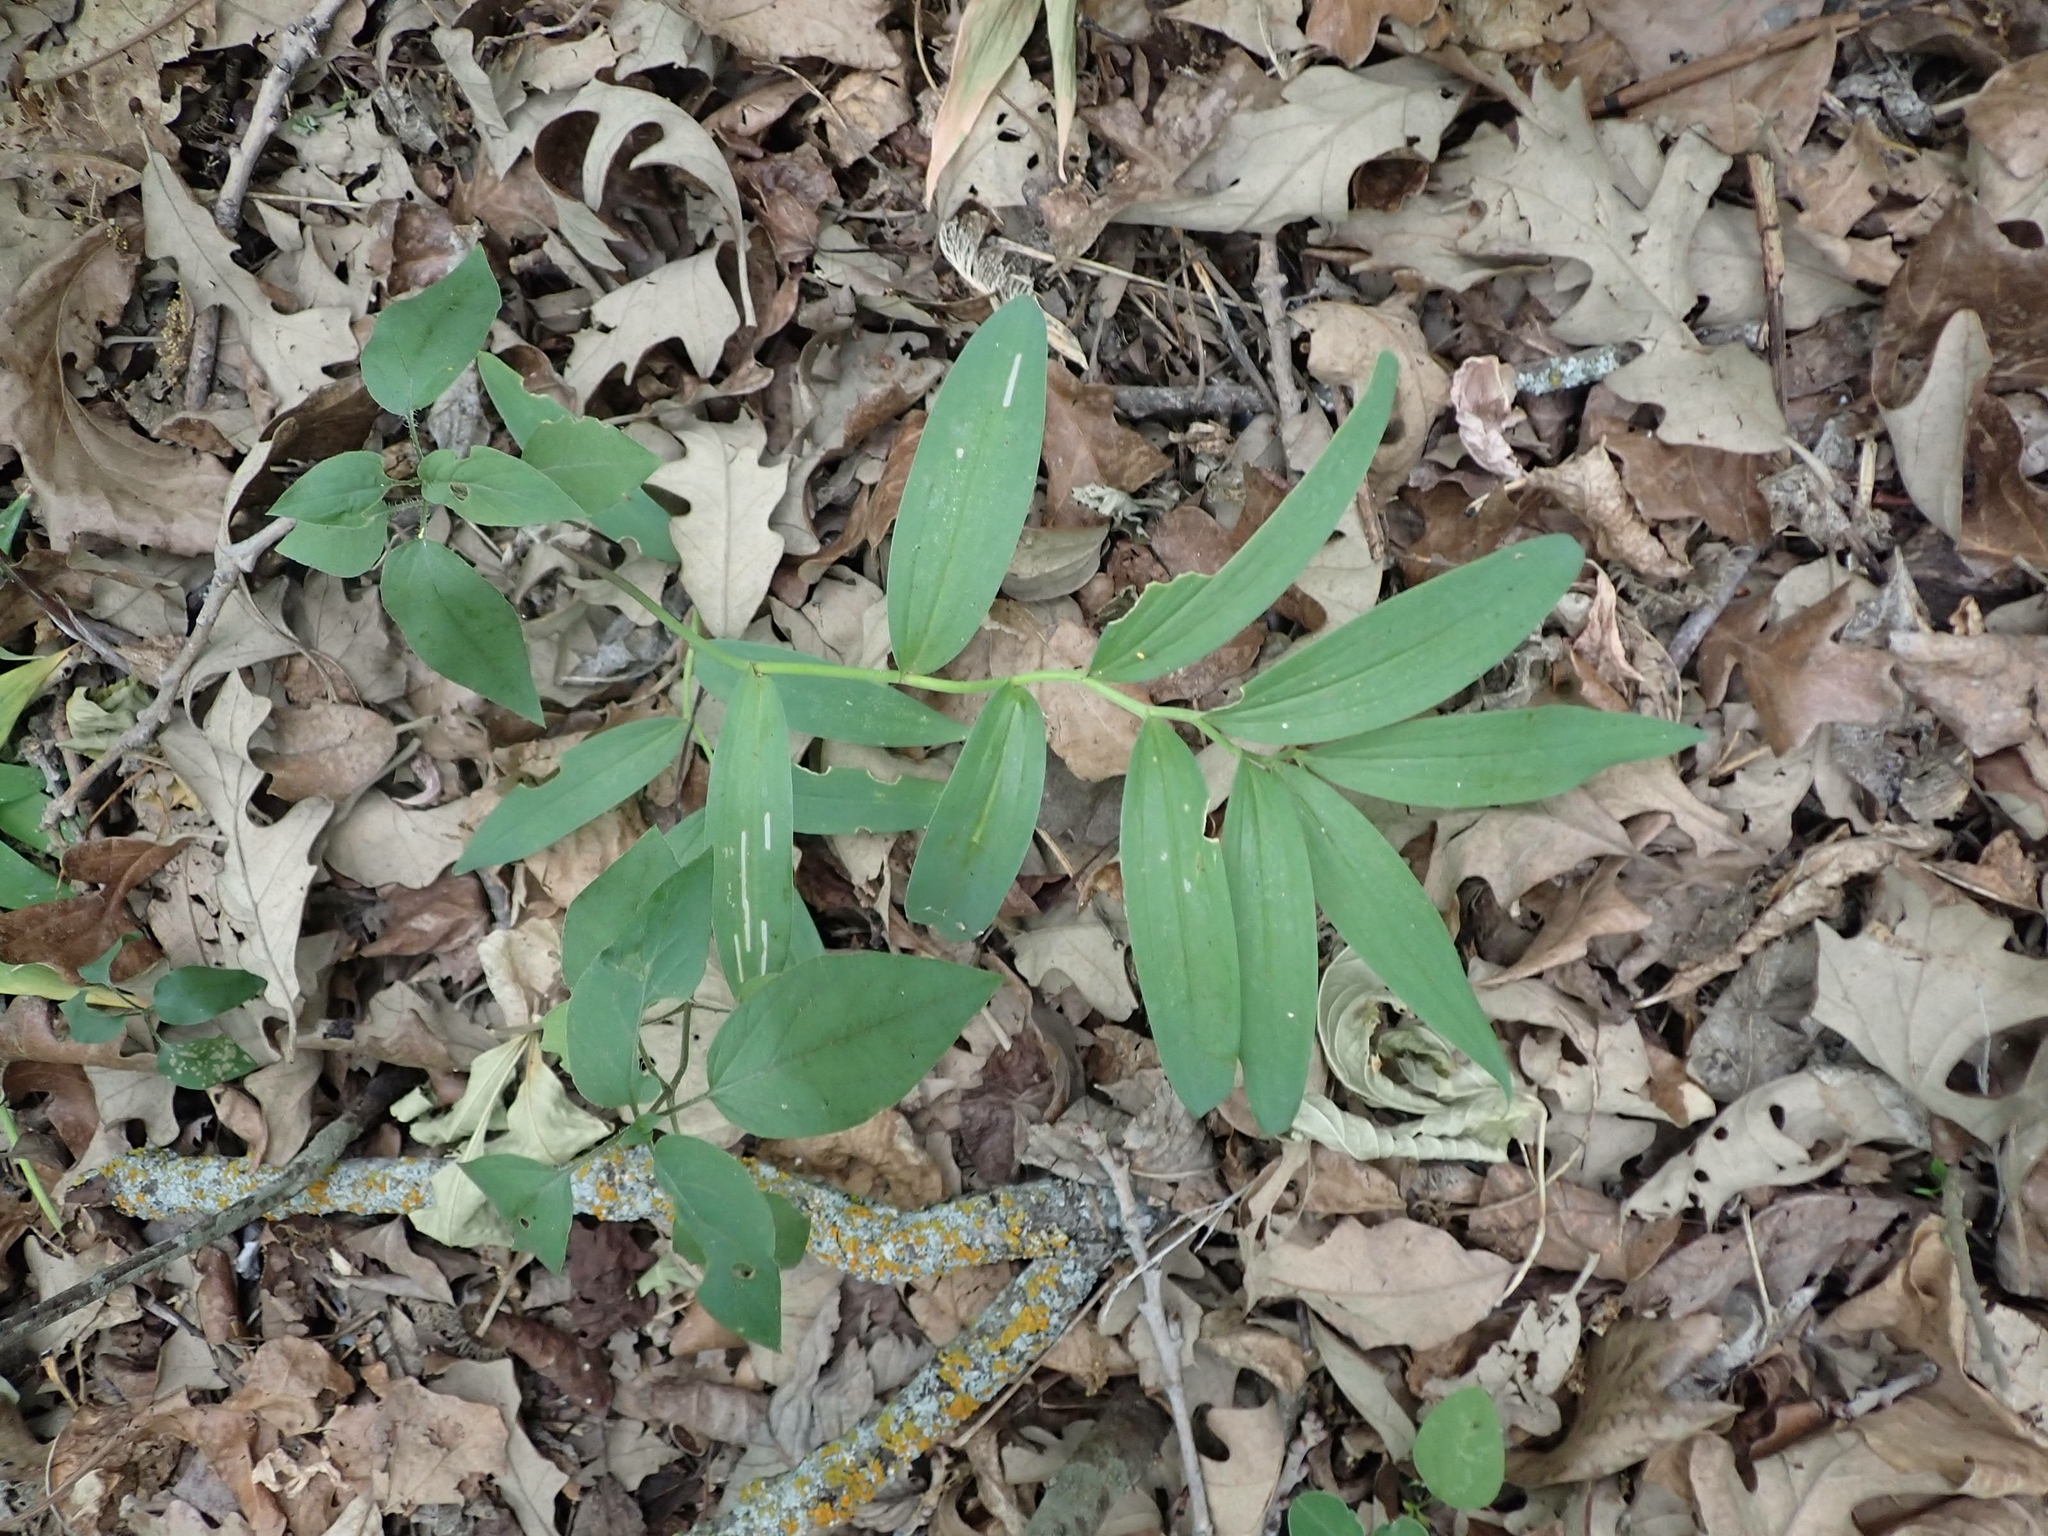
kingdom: Plantae
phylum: Tracheophyta
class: Liliopsida
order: Asparagales
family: Asparagaceae
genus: Maianthemum
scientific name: Maianthemum stellatum
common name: Little false solomon's seal
